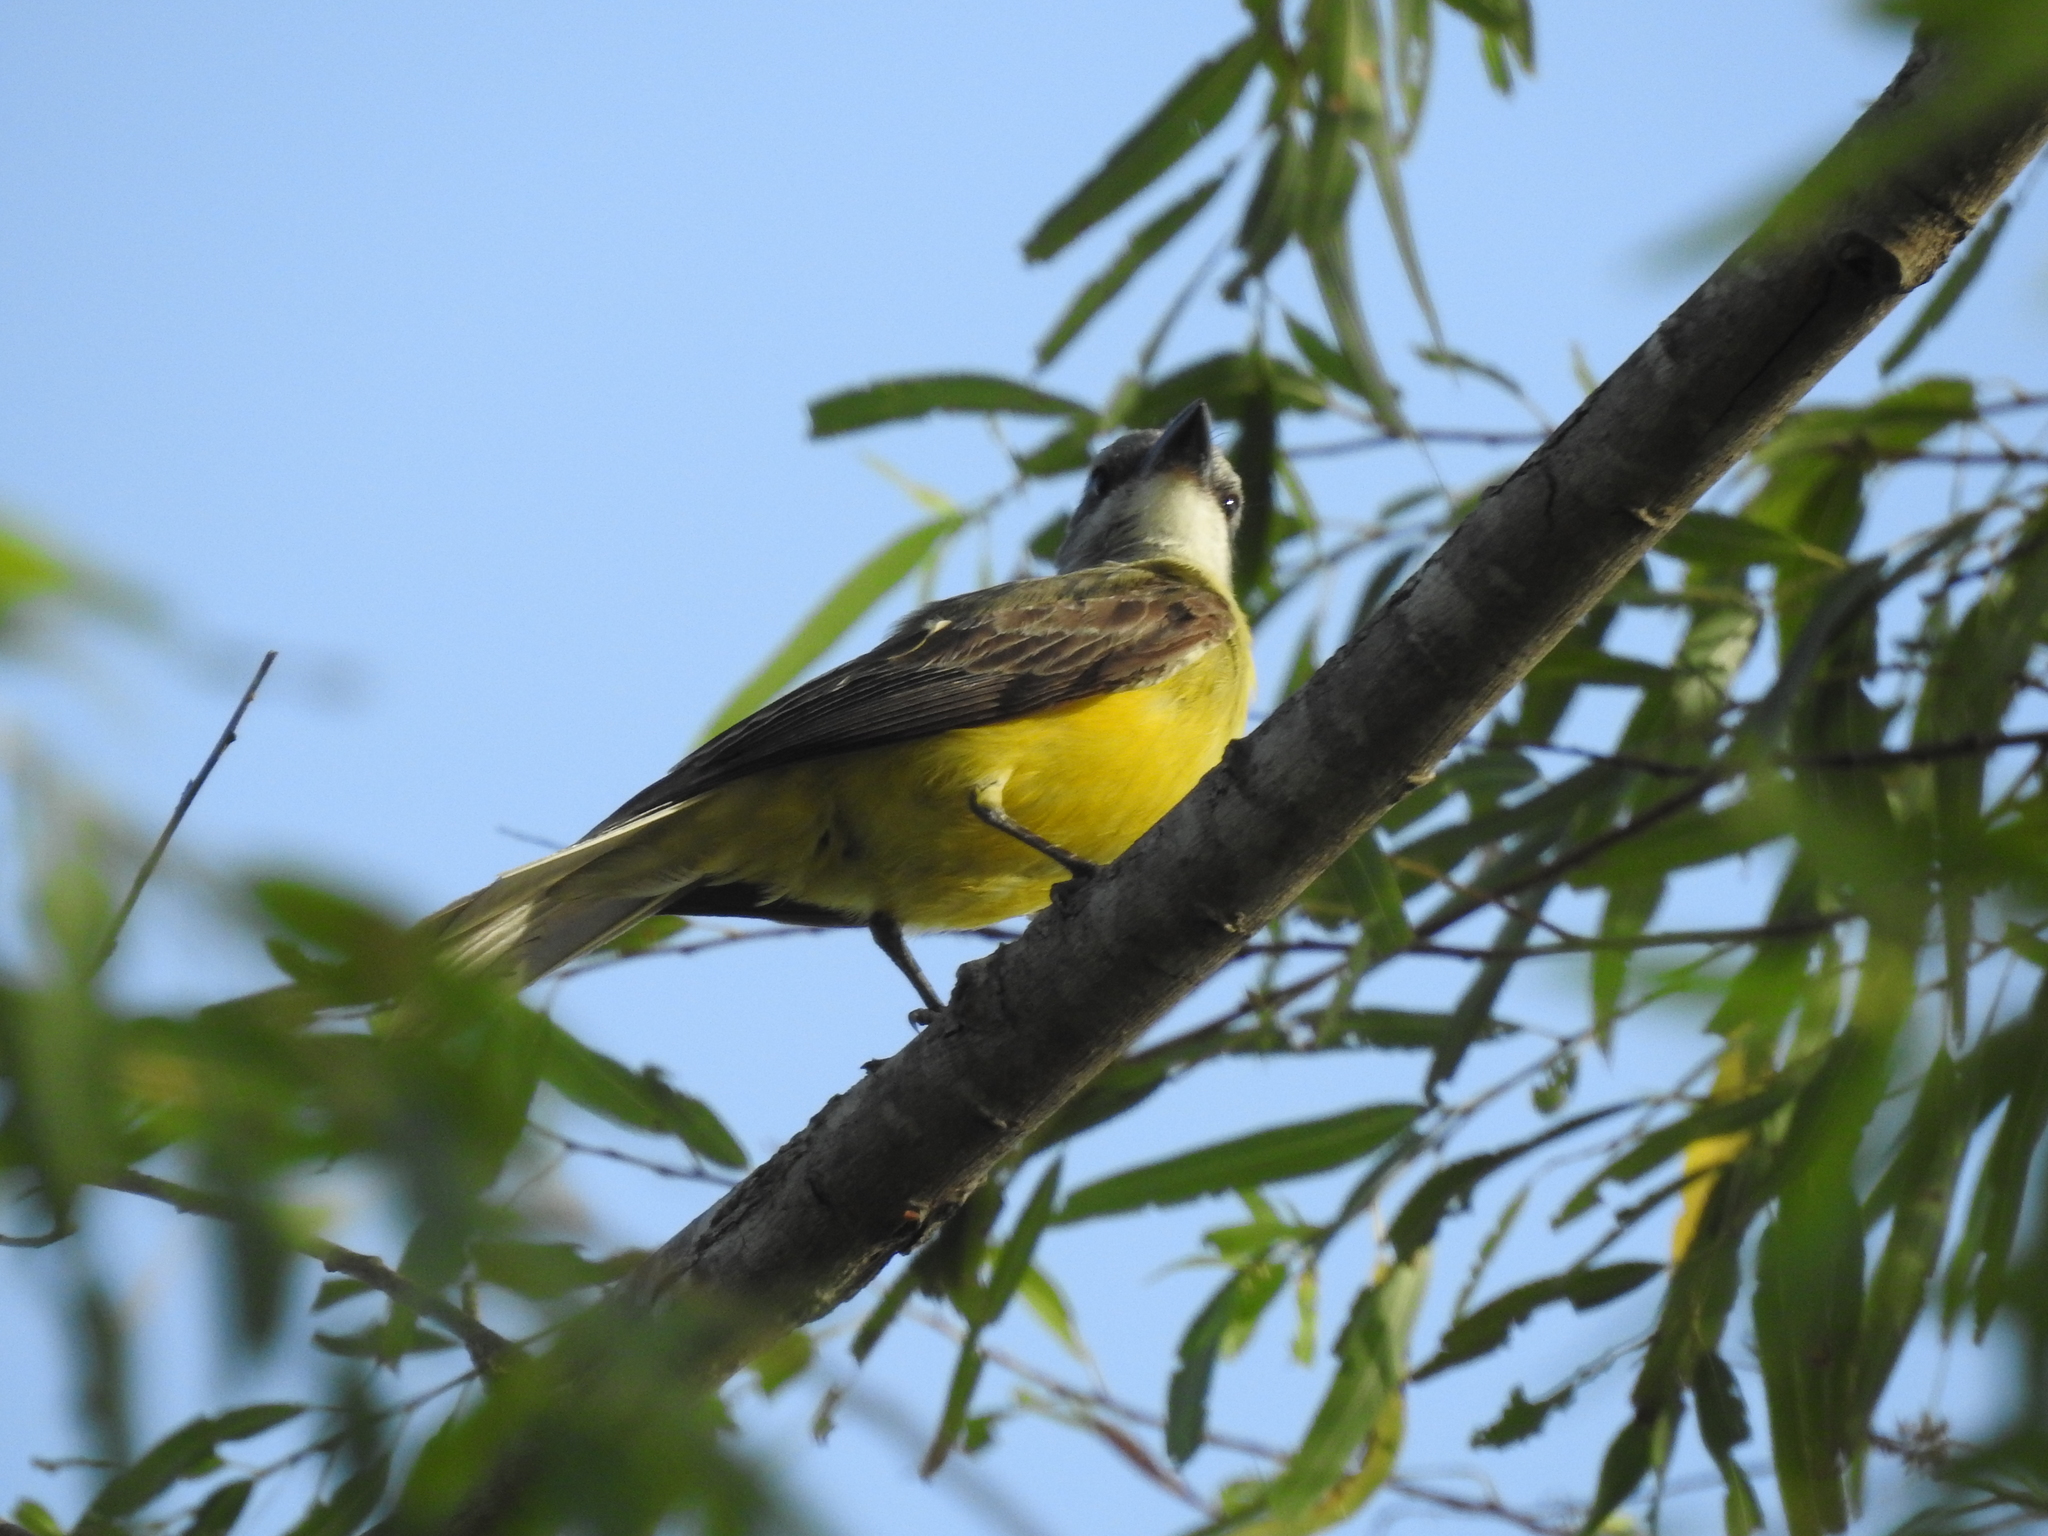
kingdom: Animalia
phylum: Chordata
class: Aves
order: Passeriformes
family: Tyrannidae
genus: Tyrannus
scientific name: Tyrannus
